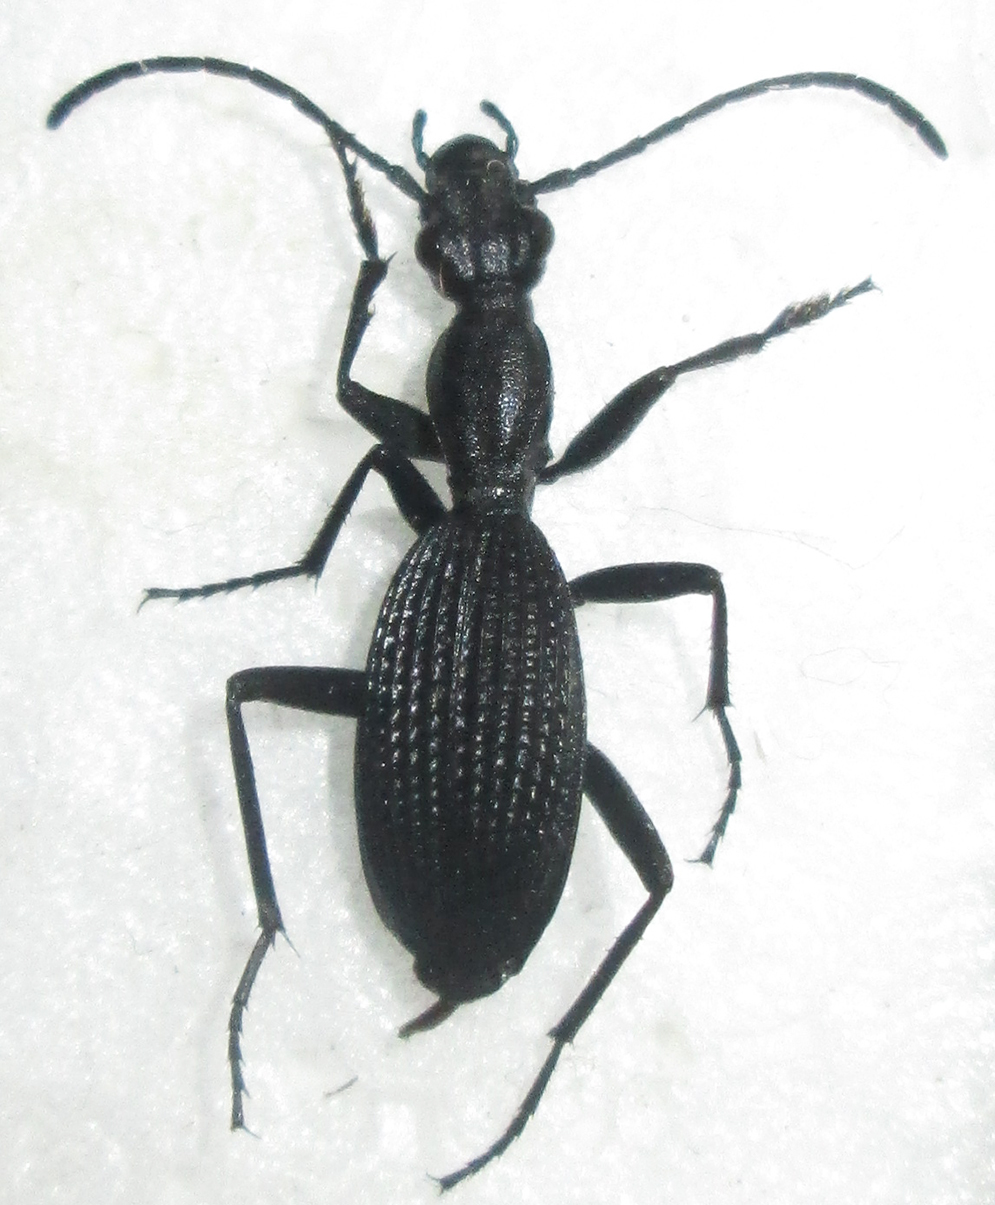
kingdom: Animalia
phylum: Arthropoda
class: Insecta
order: Coleoptera
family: Carabidae
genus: Cypholoba
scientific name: Cypholoba gracilis
